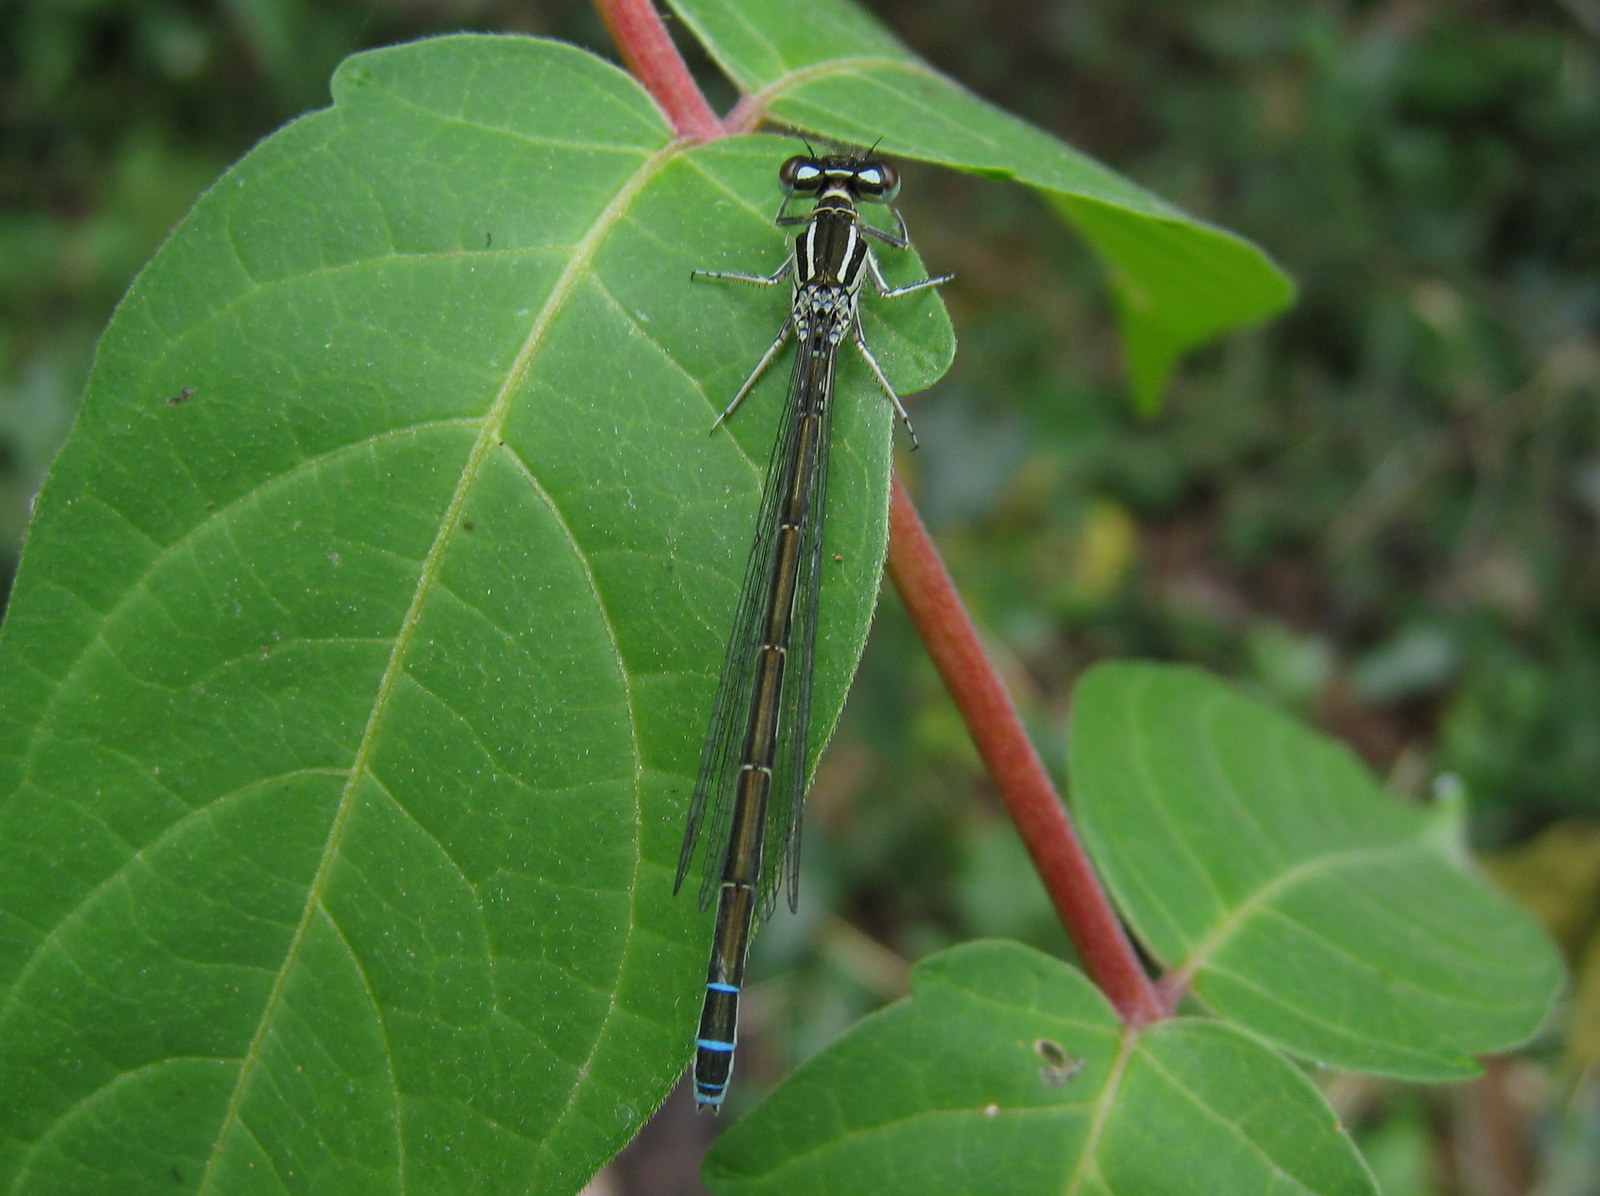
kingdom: Animalia
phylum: Arthropoda
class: Insecta
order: Odonata
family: Coenagrionidae
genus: Coenagrion
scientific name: Coenagrion mercuriale
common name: Southern damselfly
